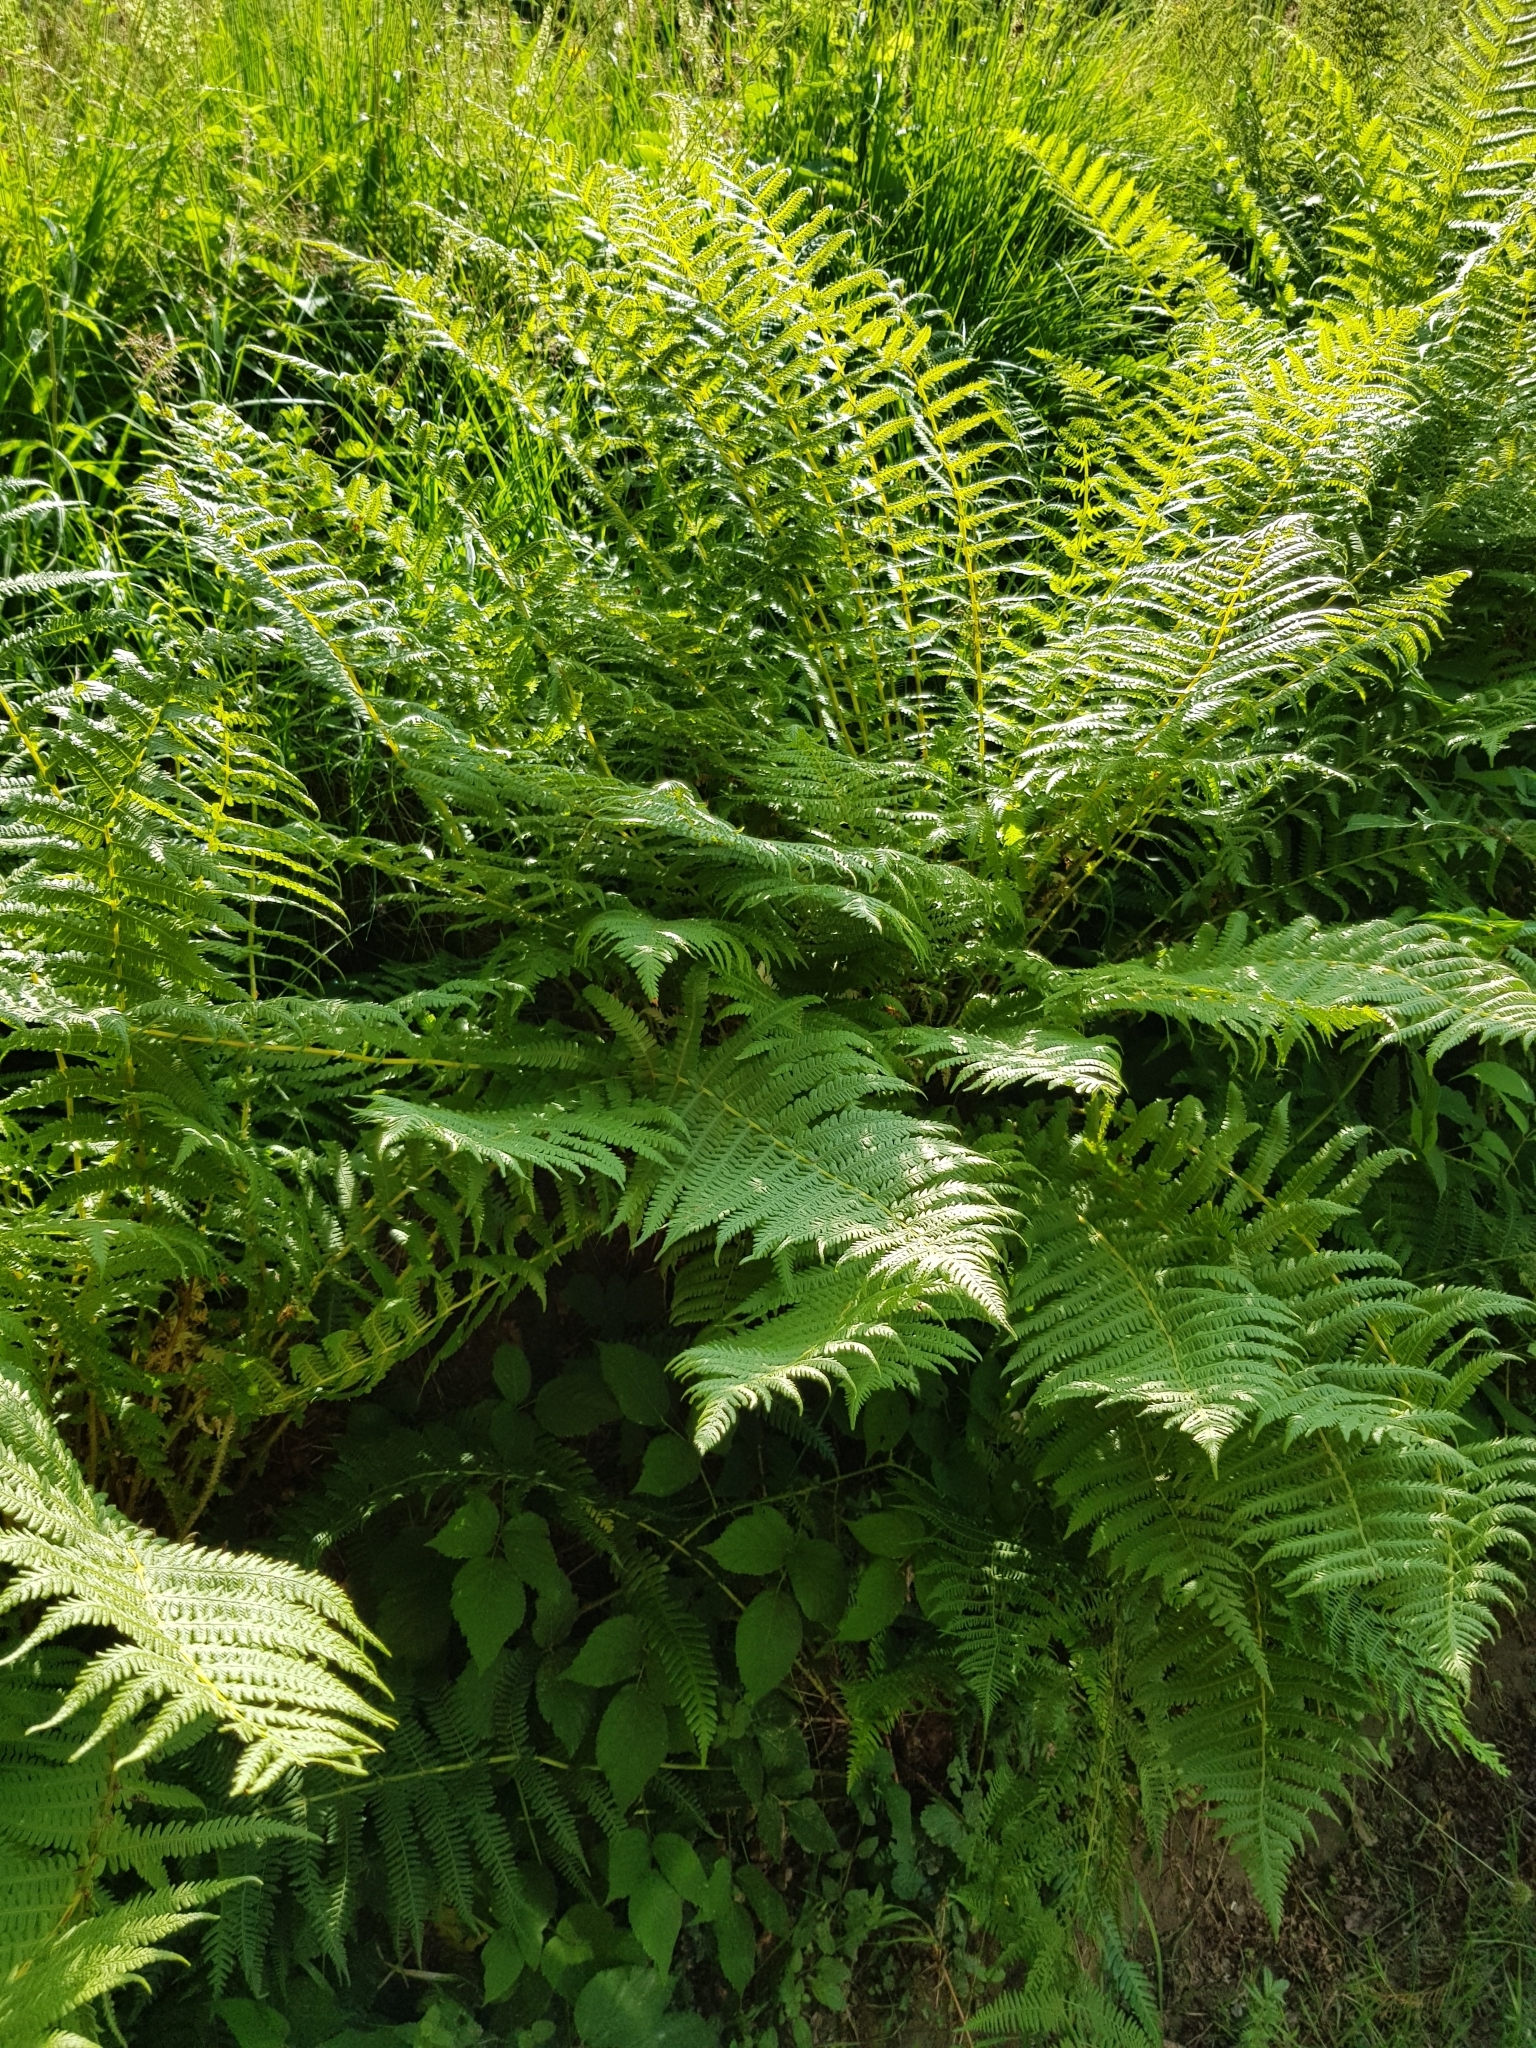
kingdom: Plantae
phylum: Tracheophyta
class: Polypodiopsida
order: Polypodiales
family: Thelypteridaceae
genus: Oreopteris
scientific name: Oreopteris limbosperma
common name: Lemon-scented fern
